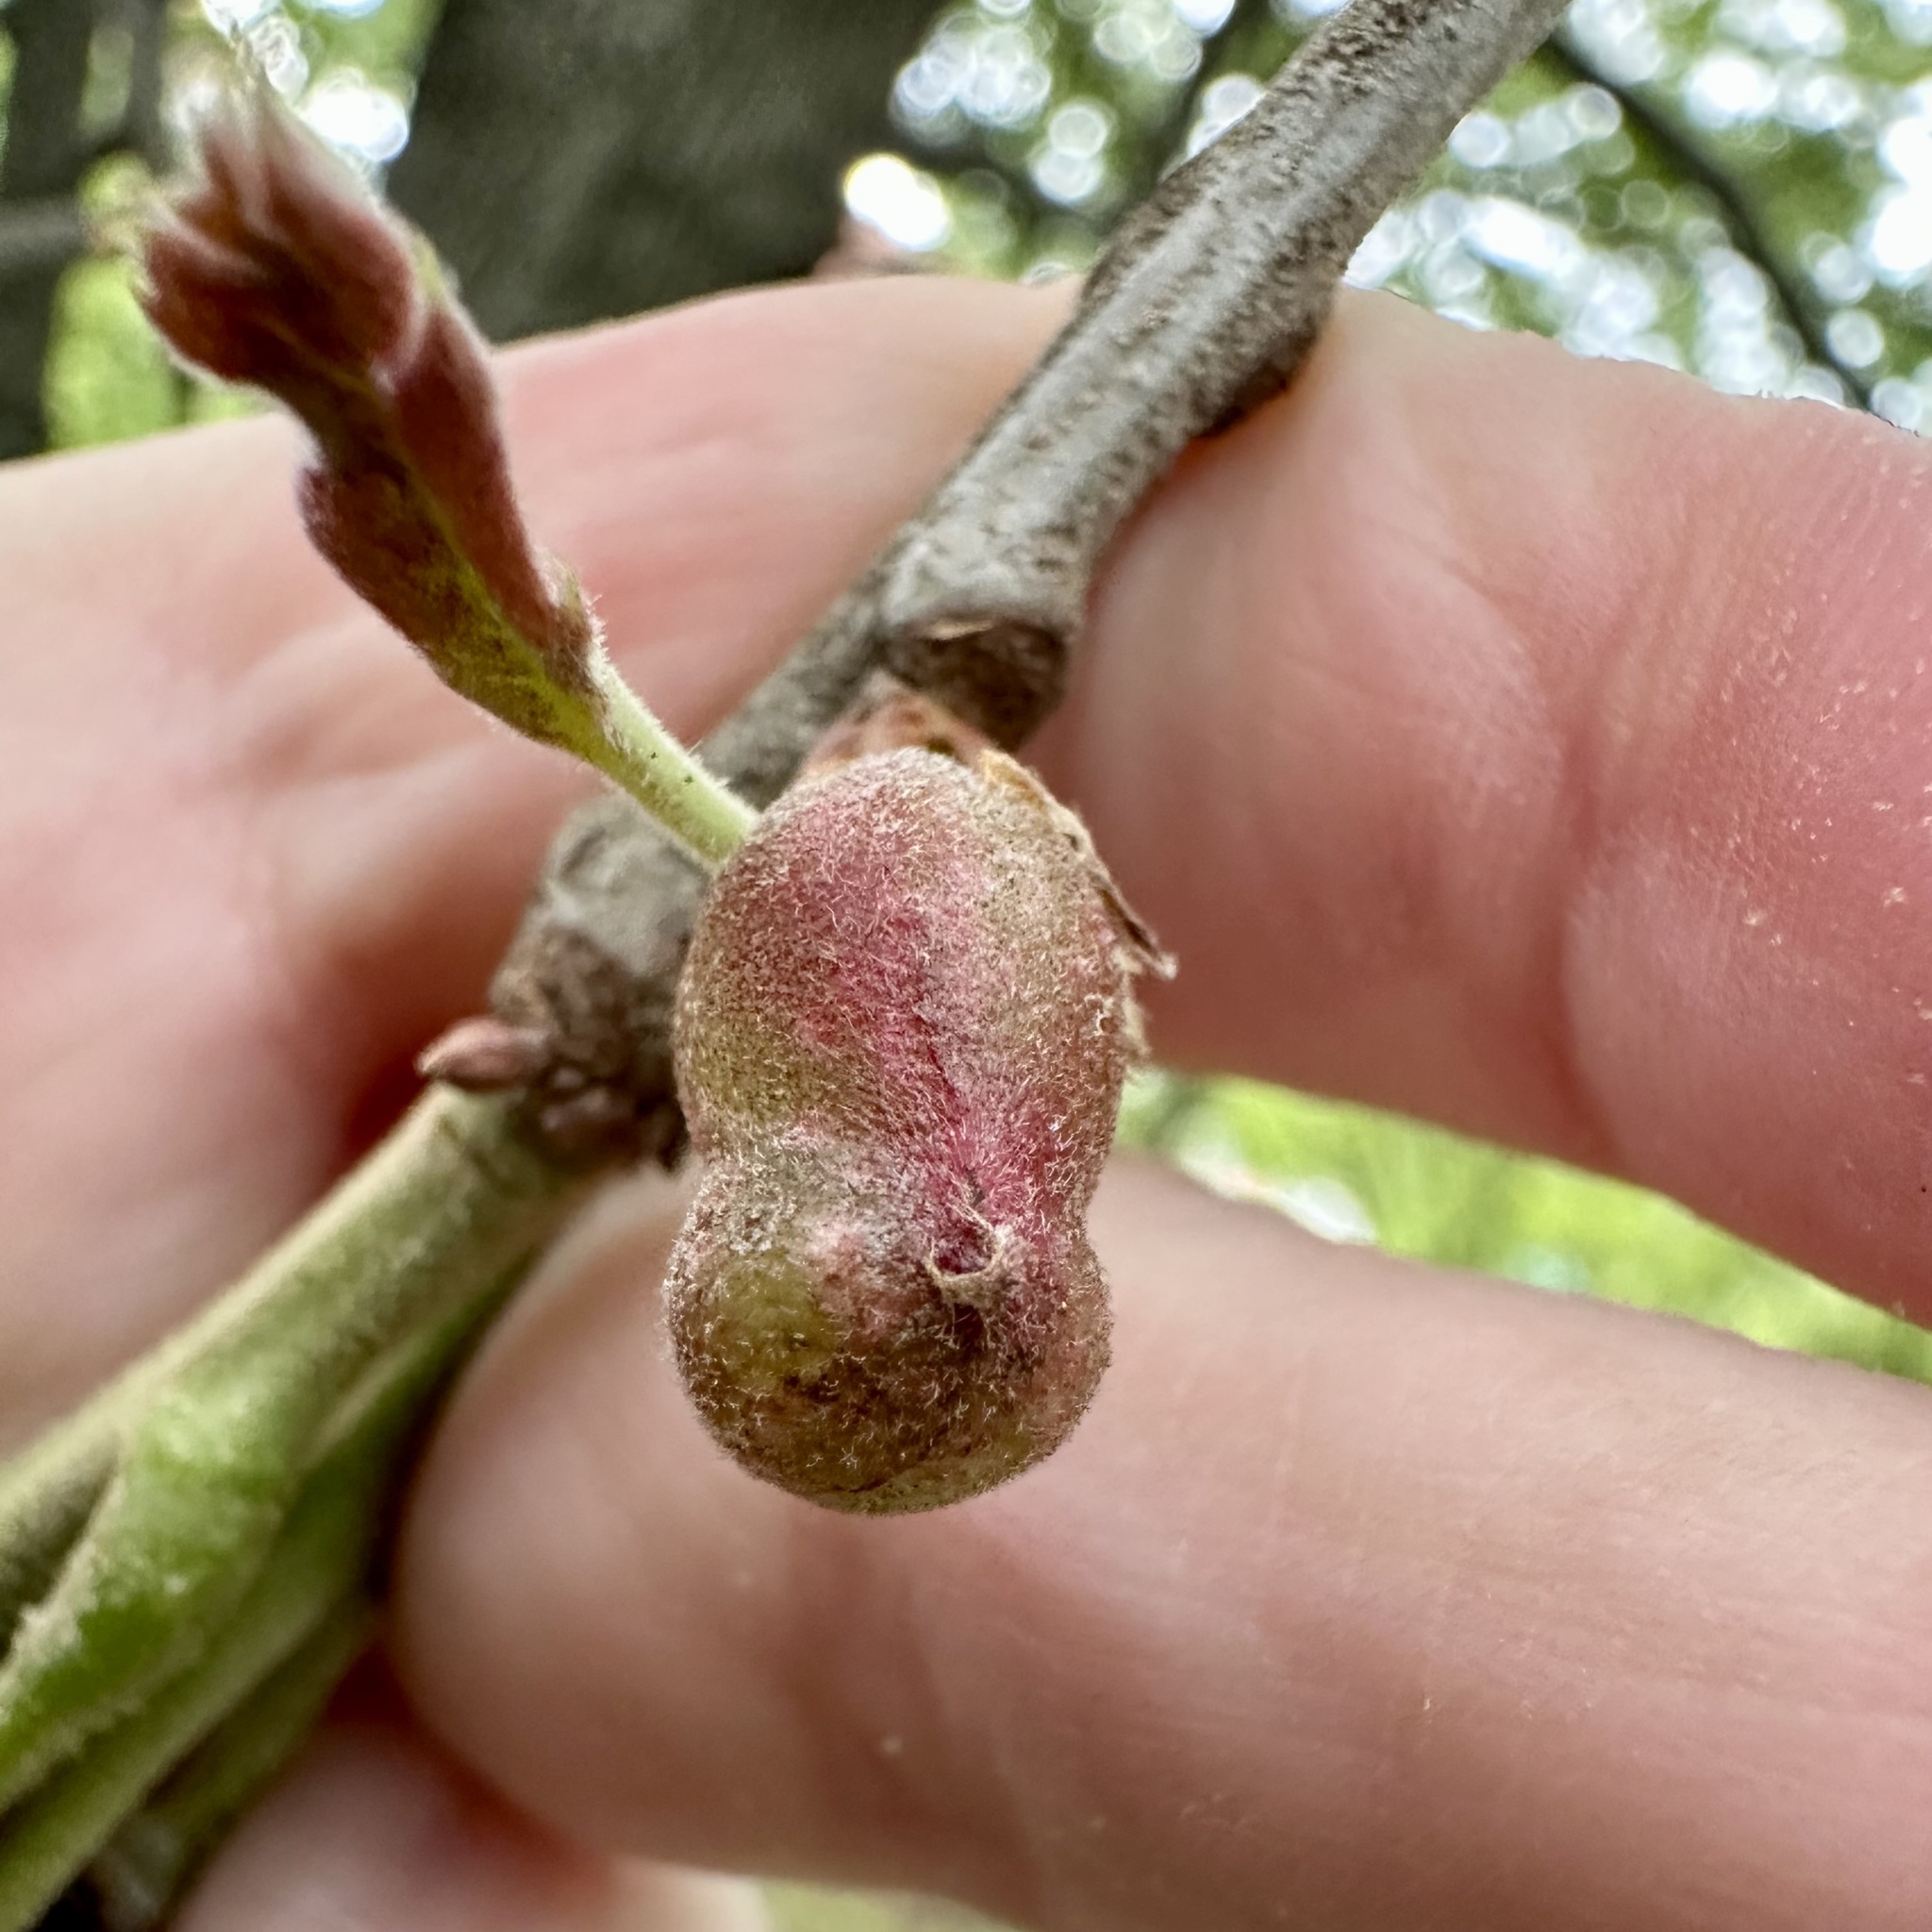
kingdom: Animalia
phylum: Arthropoda
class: Insecta
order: Hymenoptera
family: Cynipidae
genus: Dryocosmus
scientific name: Dryocosmus quercuspalustris
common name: Succulent oak gall wasp
